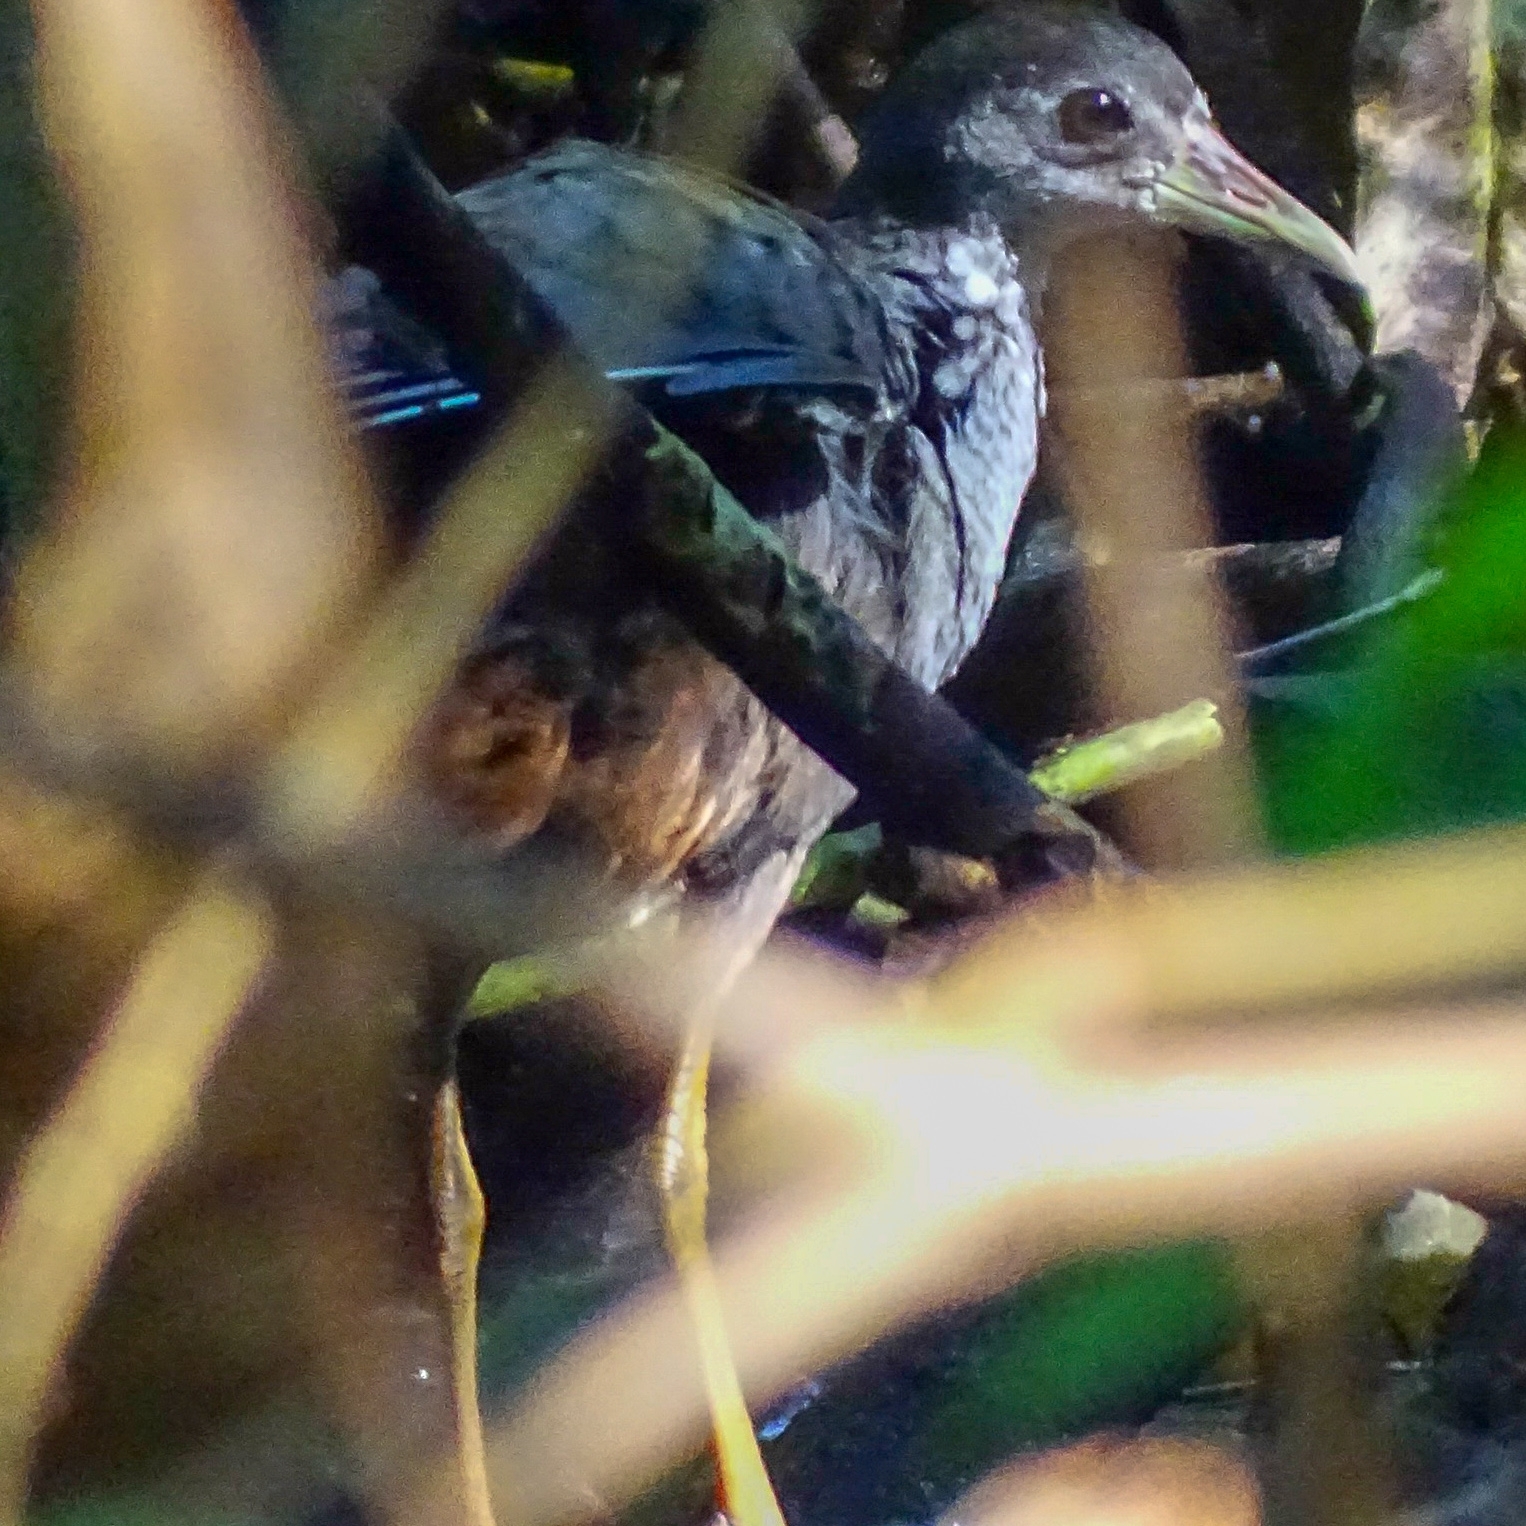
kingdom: Animalia
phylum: Chordata
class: Aves
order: Gruiformes
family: Rallidae
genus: Amaurornis
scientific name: Amaurornis phoenicurus
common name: White-breasted waterhen
